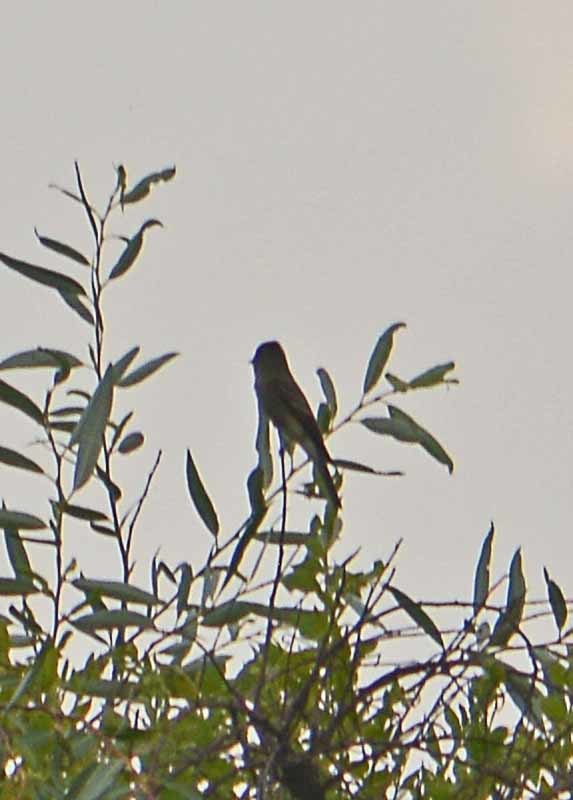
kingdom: Animalia
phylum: Chordata
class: Aves
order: Passeriformes
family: Tyrannidae
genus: Contopus
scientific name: Contopus sordidulus
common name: Western wood-pewee
